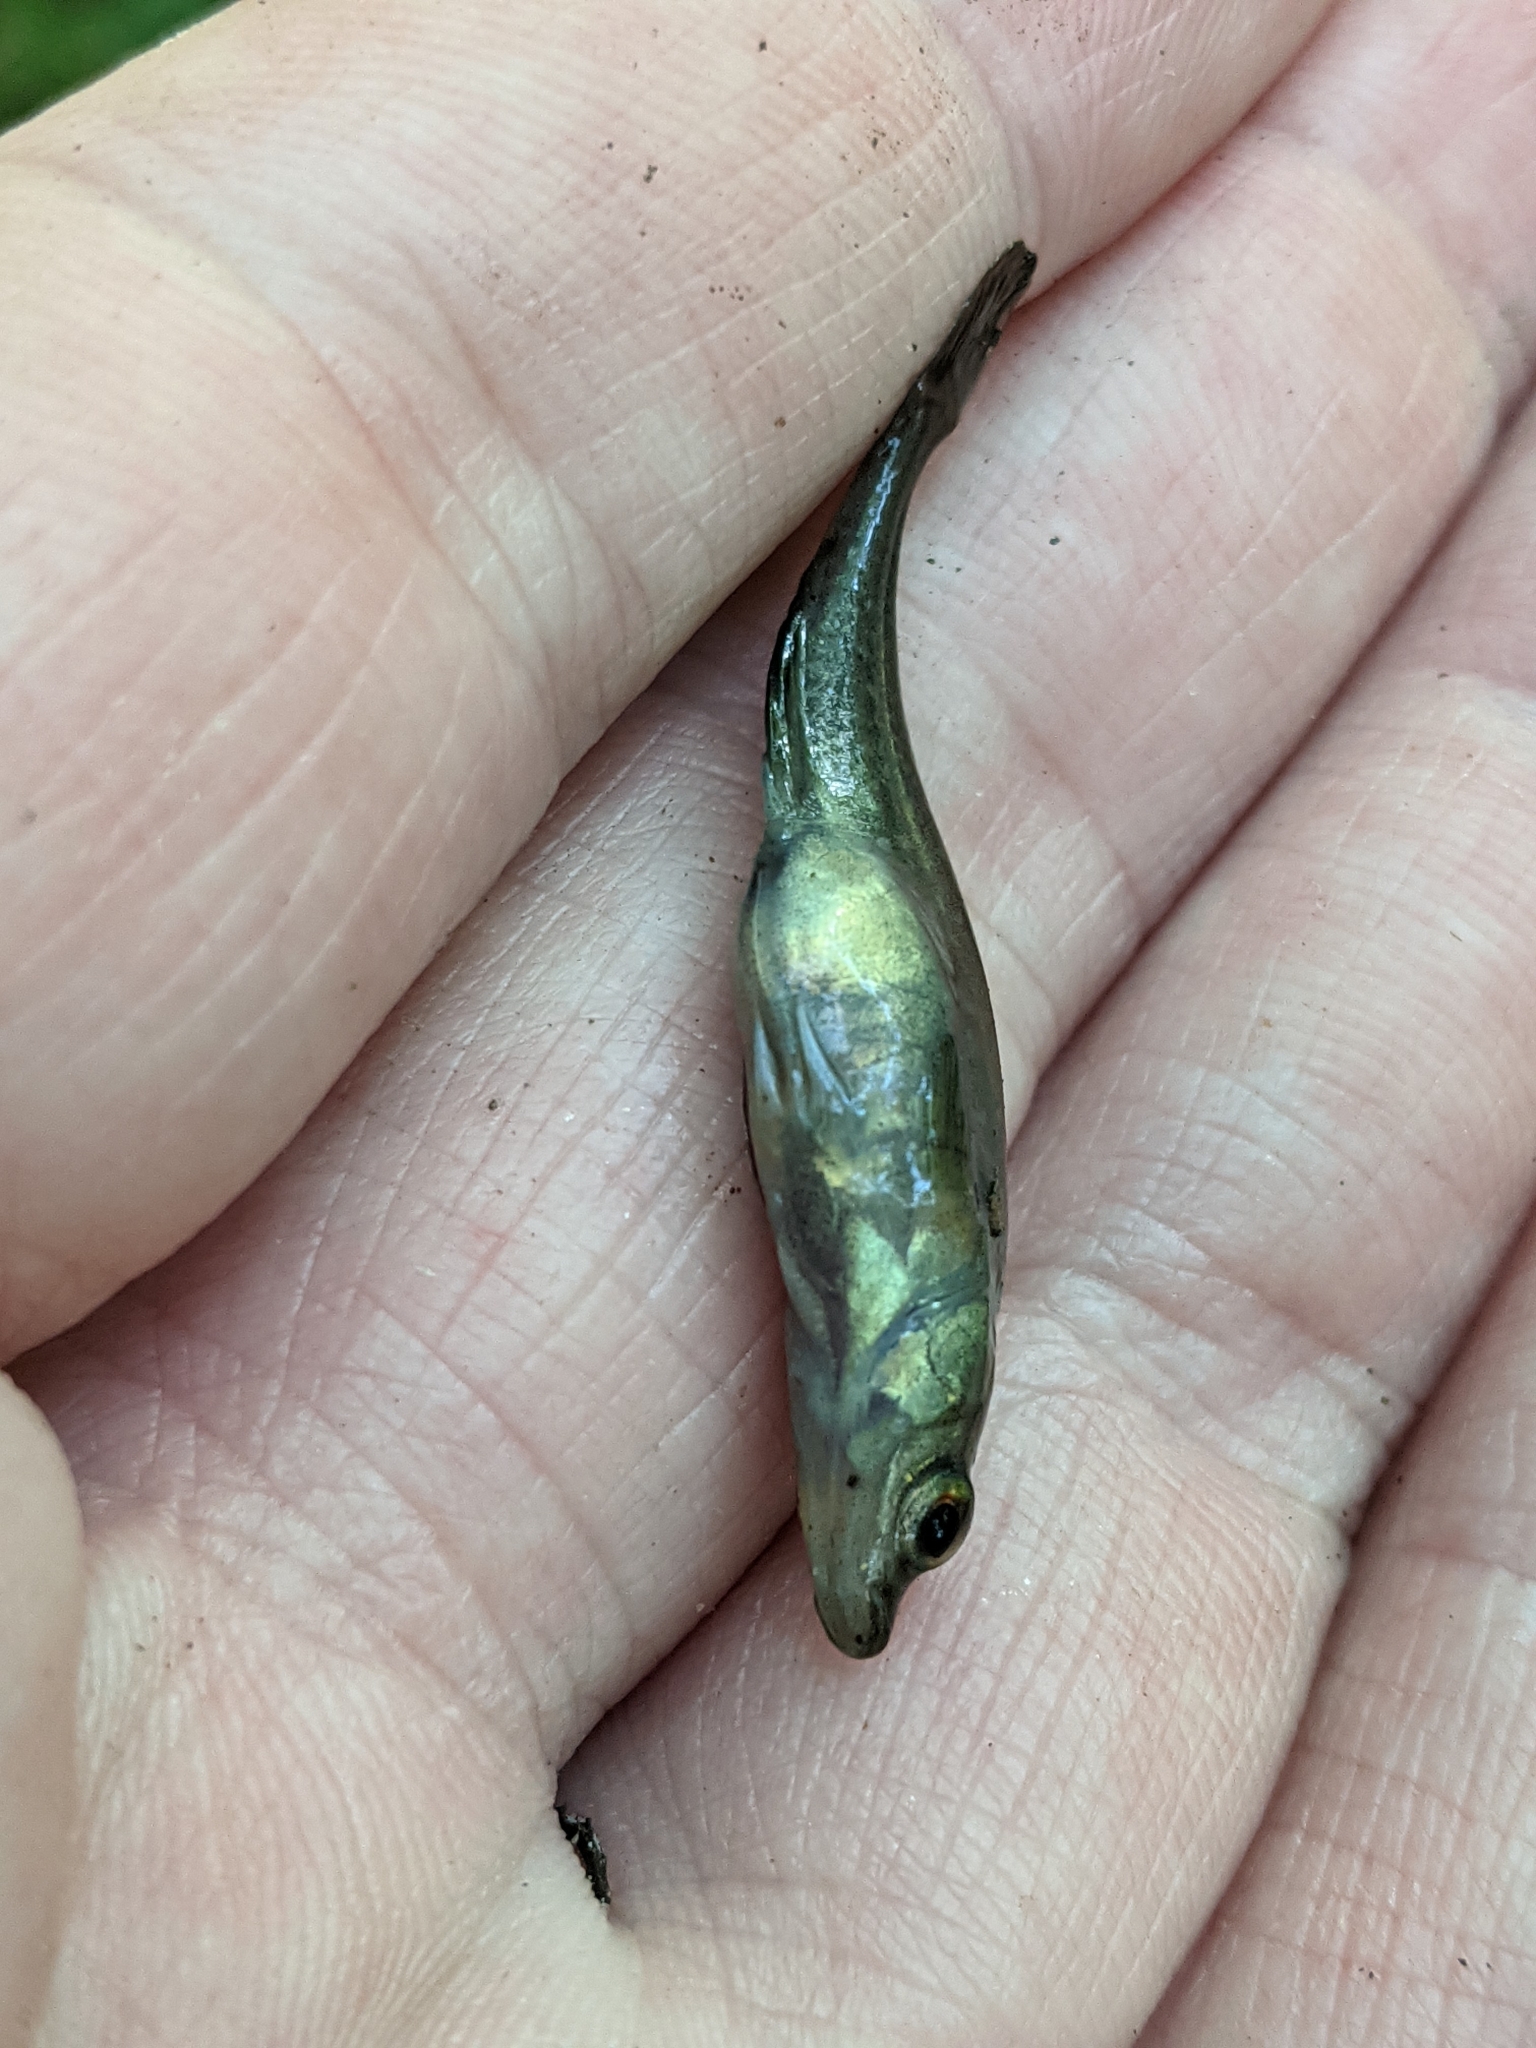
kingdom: Animalia
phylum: Chordata
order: Gasterosteiformes
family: Gasterosteidae
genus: Culaea
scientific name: Culaea inconstans
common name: Brook stickleback
